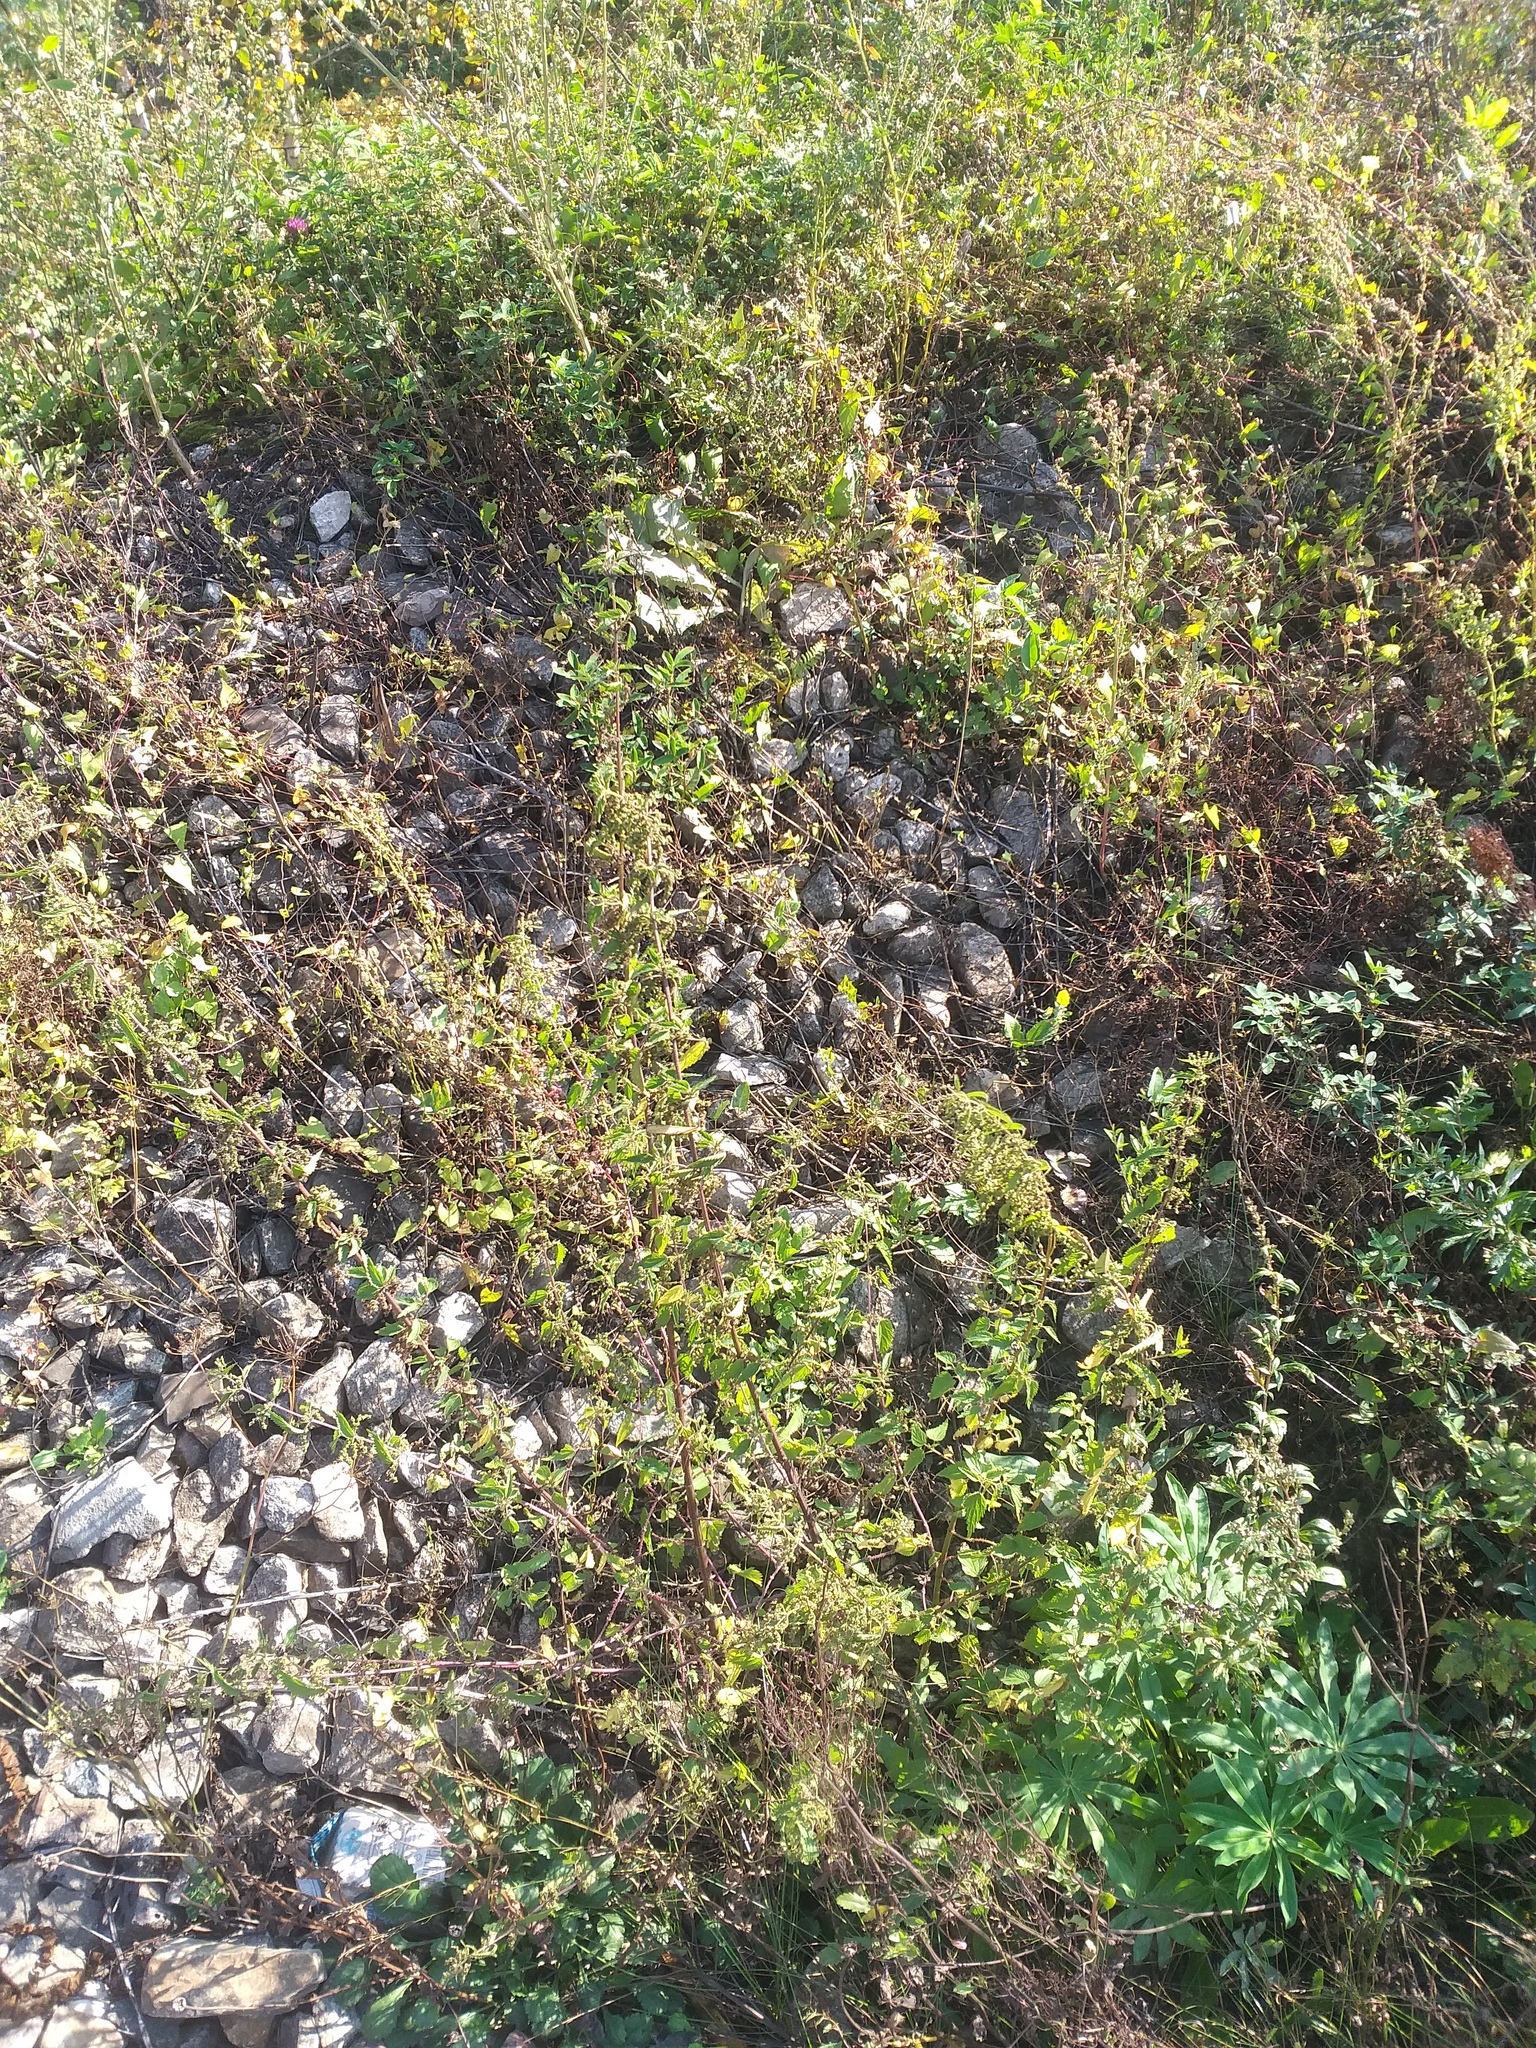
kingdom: Plantae
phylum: Tracheophyta
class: Magnoliopsida
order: Rosales
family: Urticaceae
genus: Urtica
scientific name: Urtica dioica
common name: Common nettle
